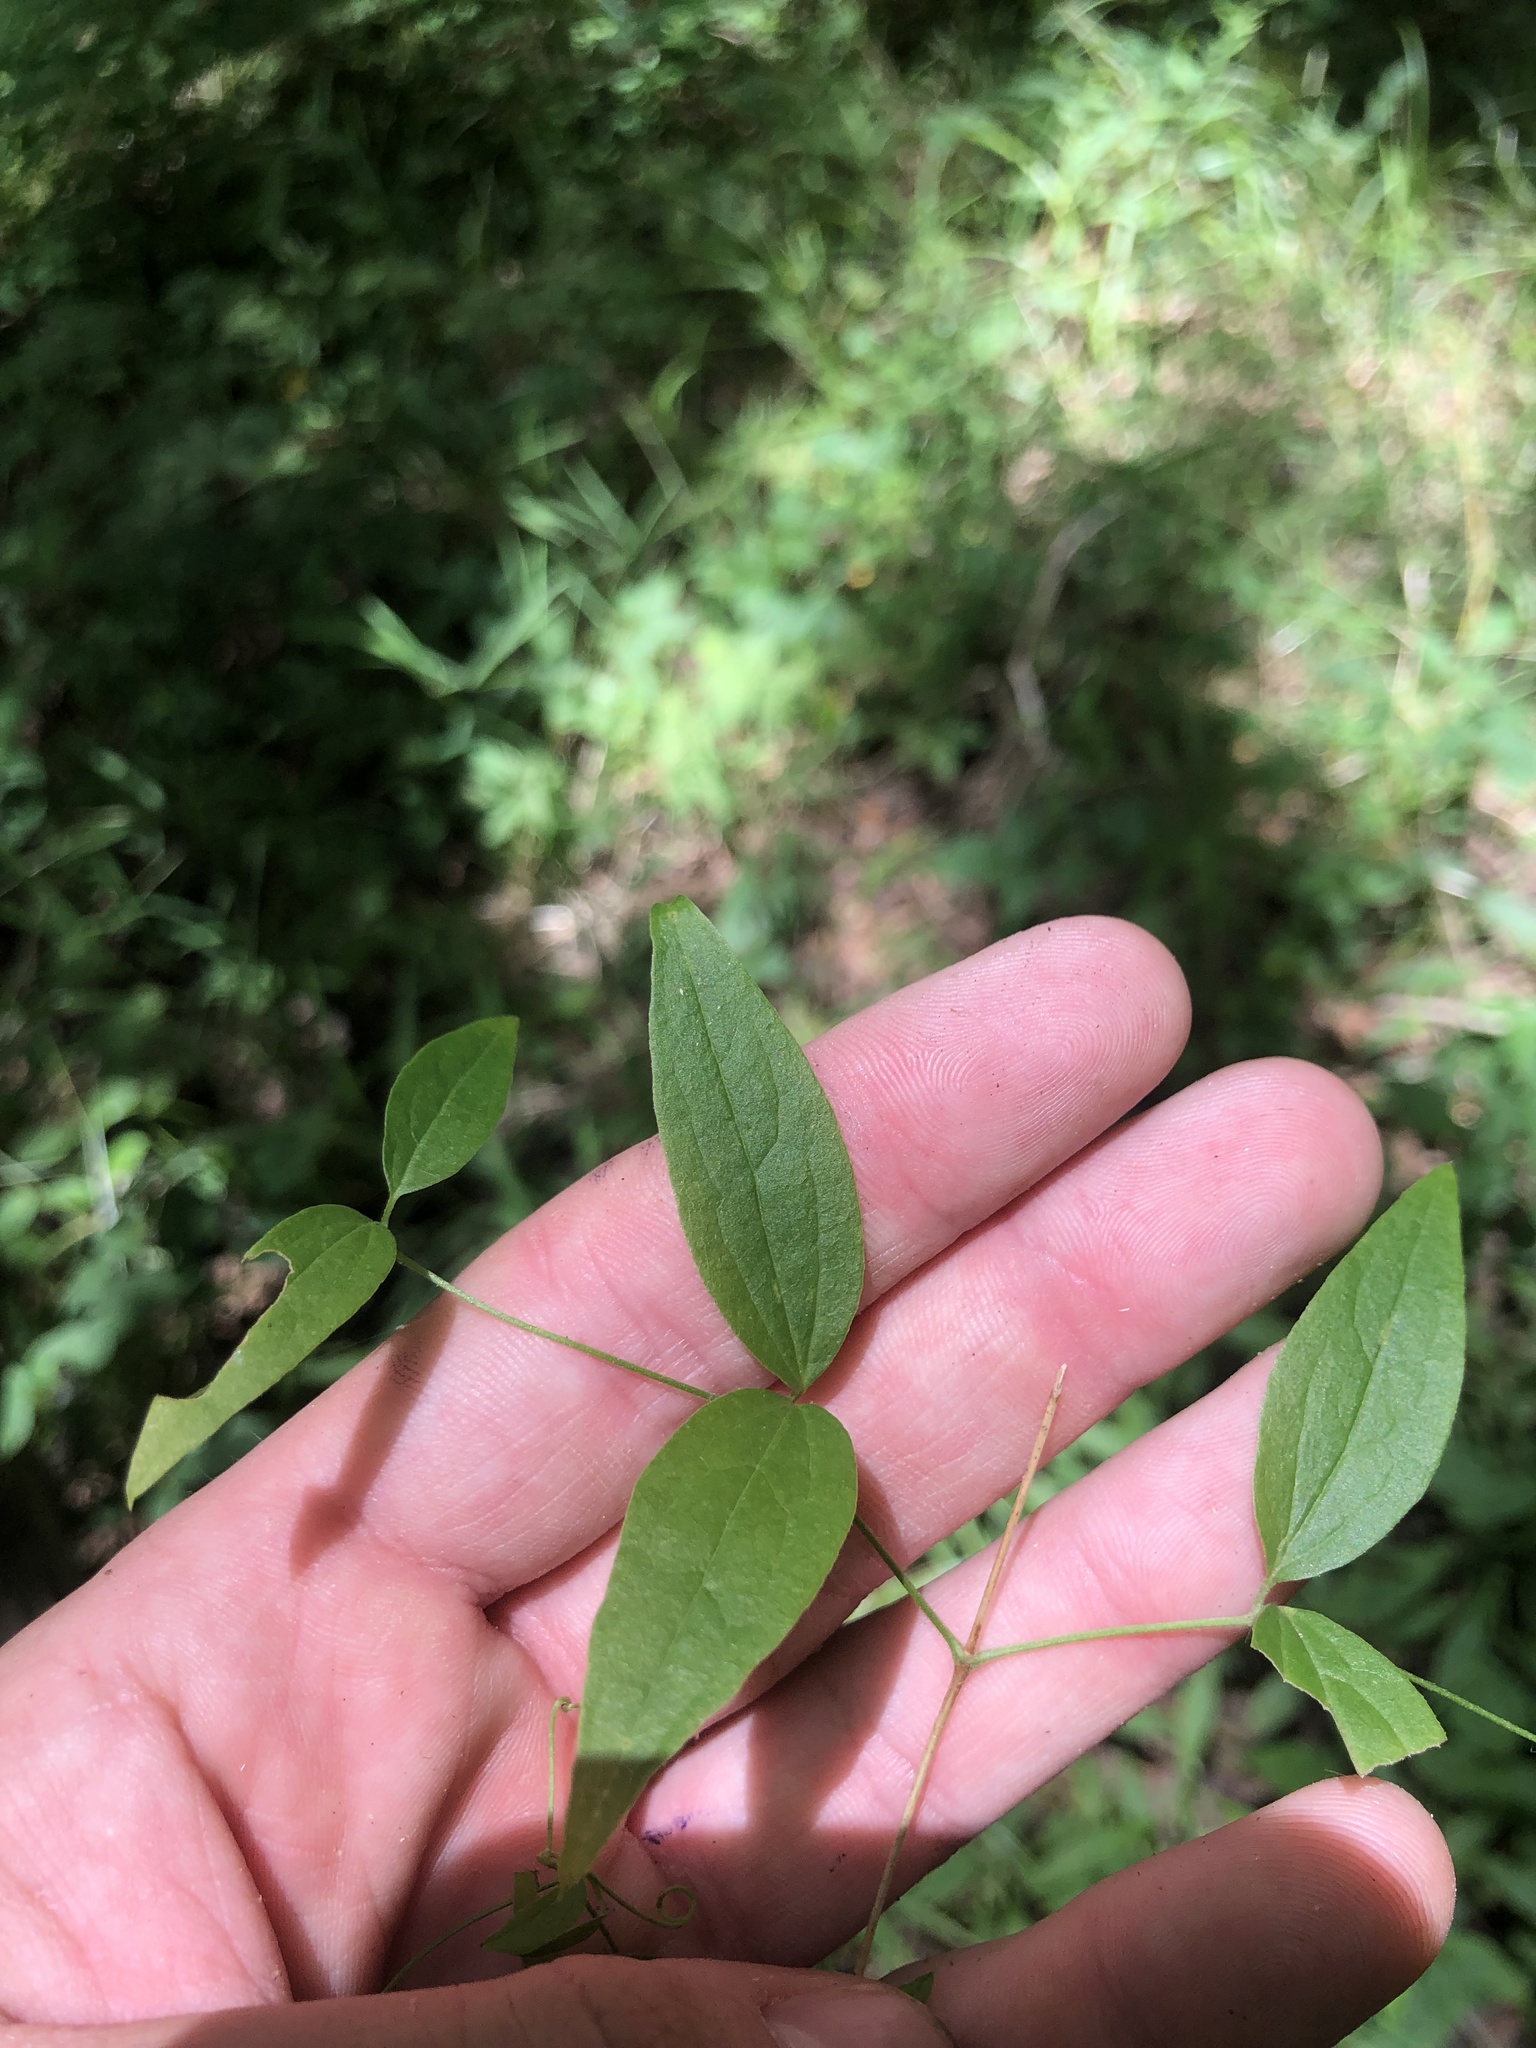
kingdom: Plantae
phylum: Tracheophyta
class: Magnoliopsida
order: Ranunculales
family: Ranunculaceae
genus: Clematis
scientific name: Clematis pitcheri
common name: Bellflower clematis
